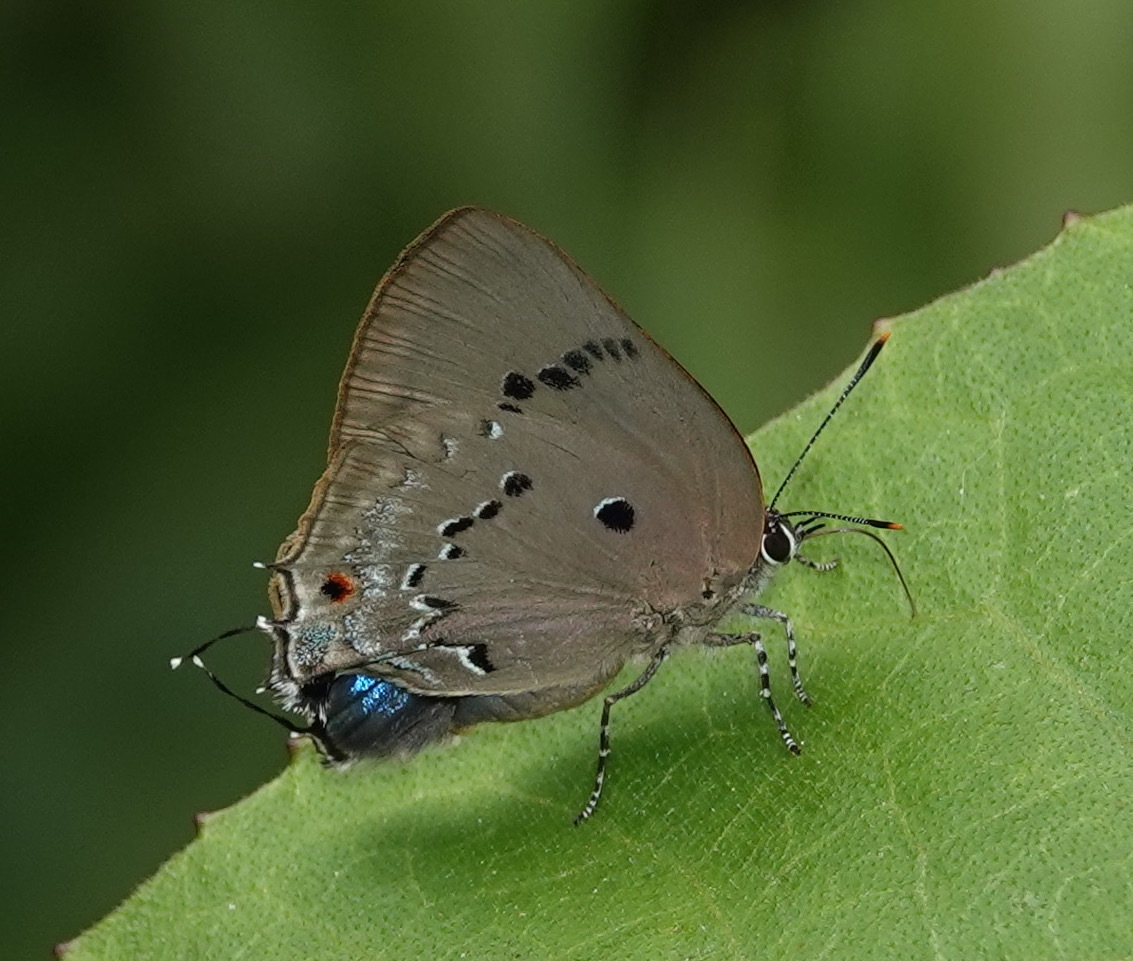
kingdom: Animalia
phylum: Arthropoda
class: Insecta
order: Lepidoptera
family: Lycaenidae
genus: Parrhasius
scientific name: Parrhasius polibetes
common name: Black-spot hairstreak
